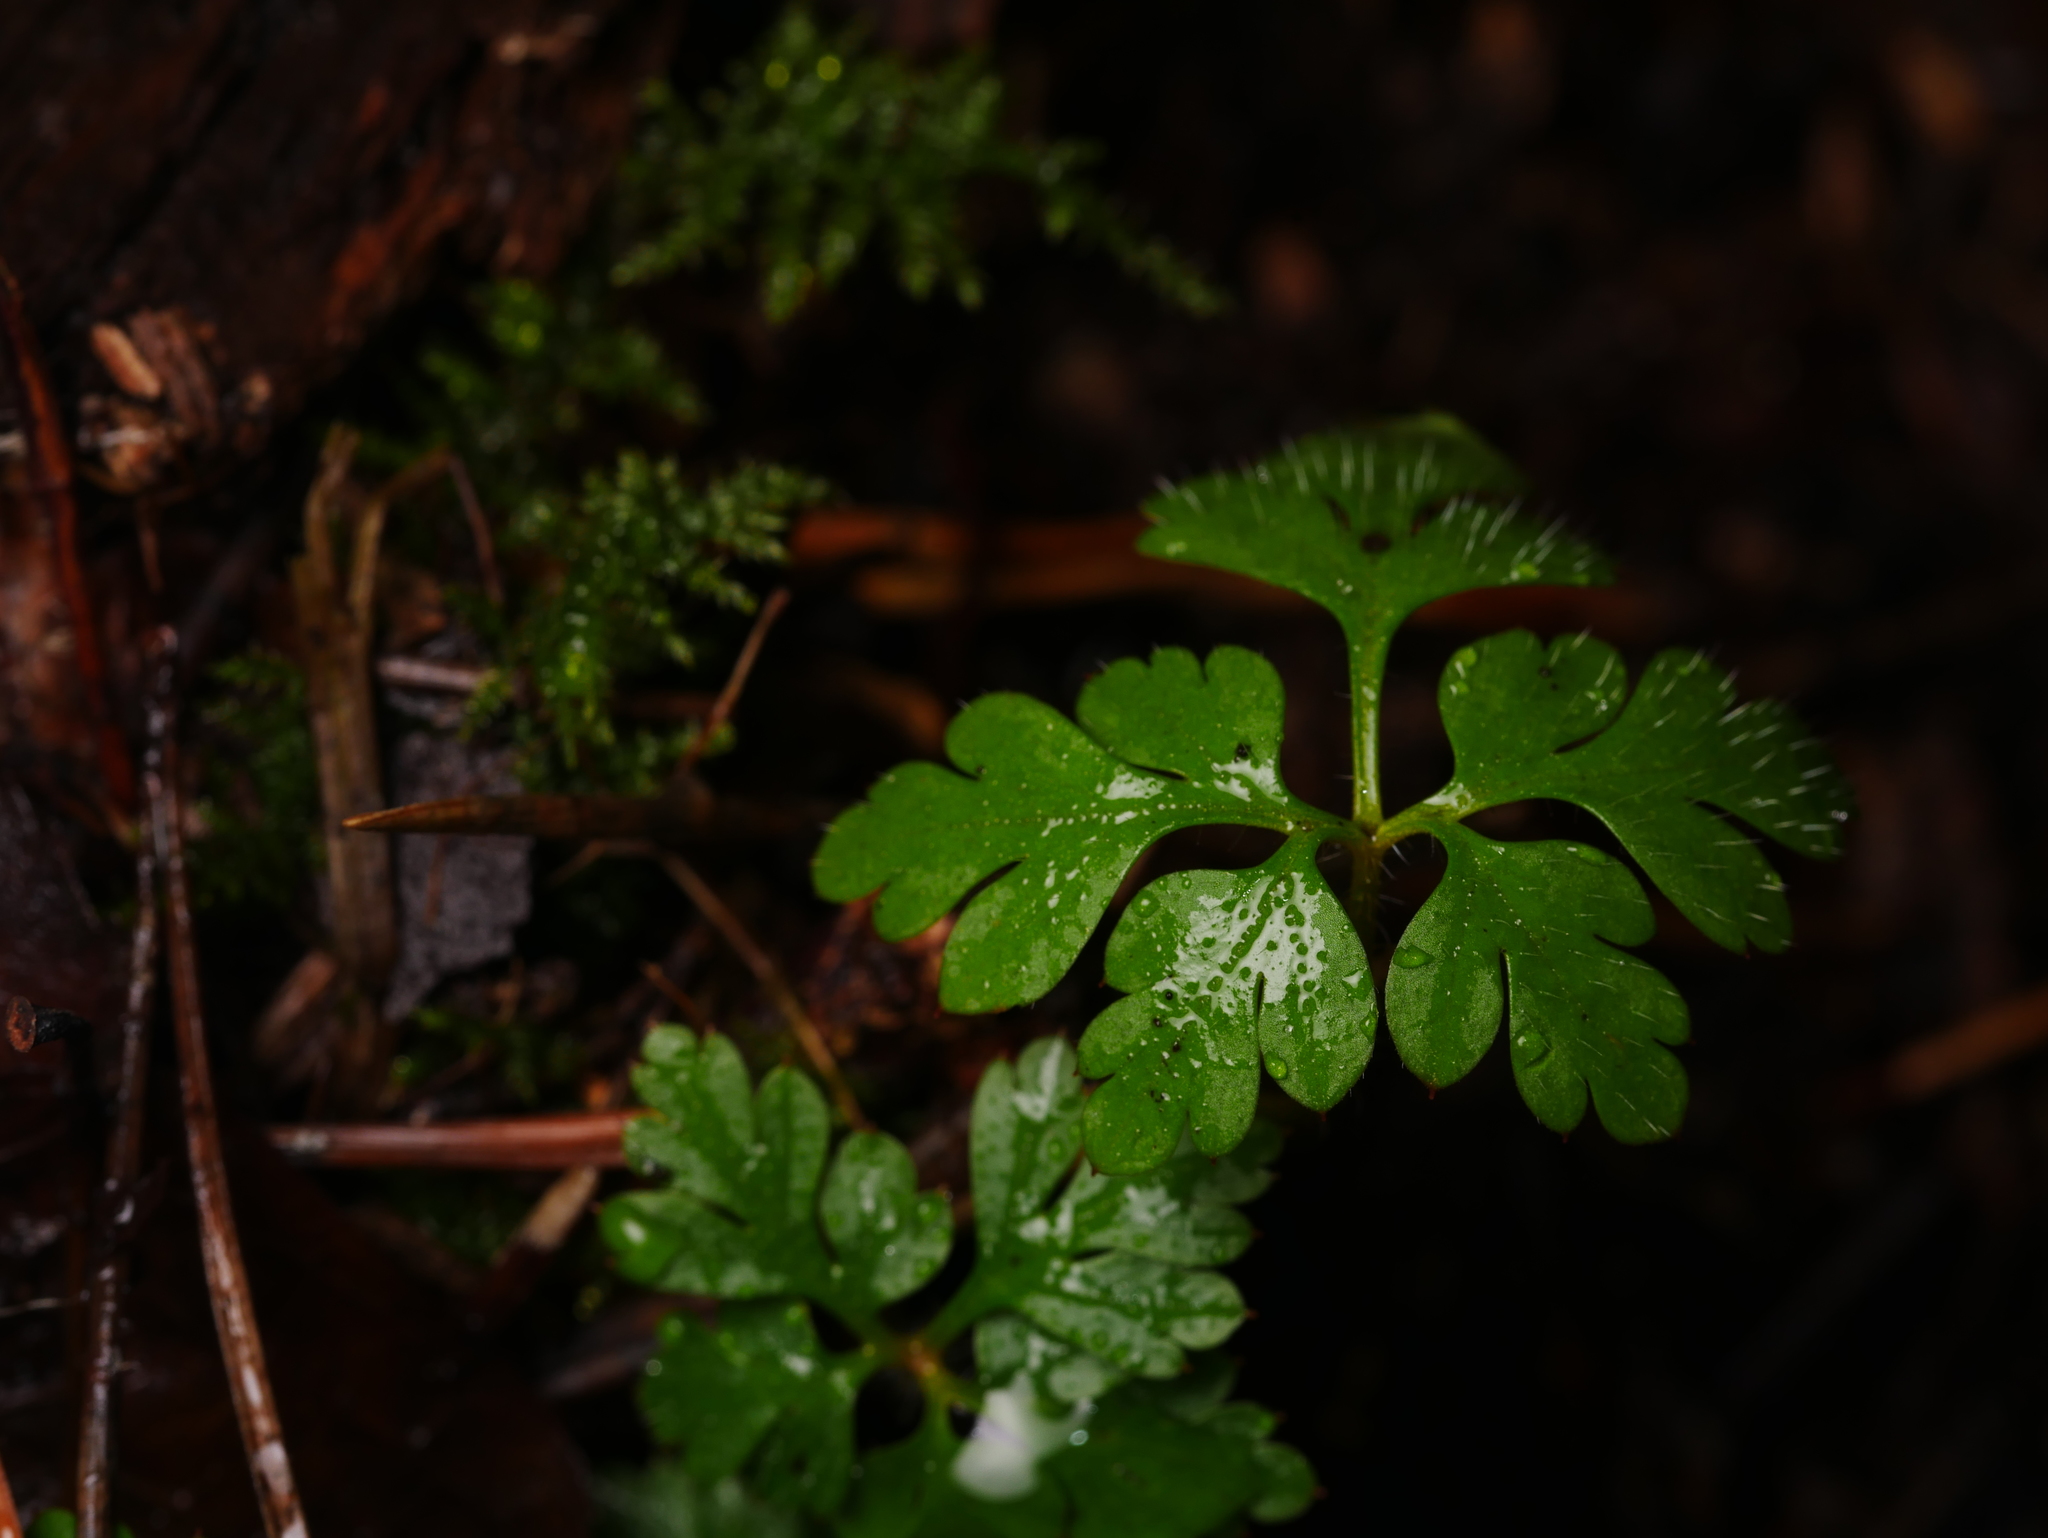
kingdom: Plantae
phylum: Tracheophyta
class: Magnoliopsida
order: Geraniales
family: Geraniaceae
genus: Geranium
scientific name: Geranium robertianum
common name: Herb-robert
